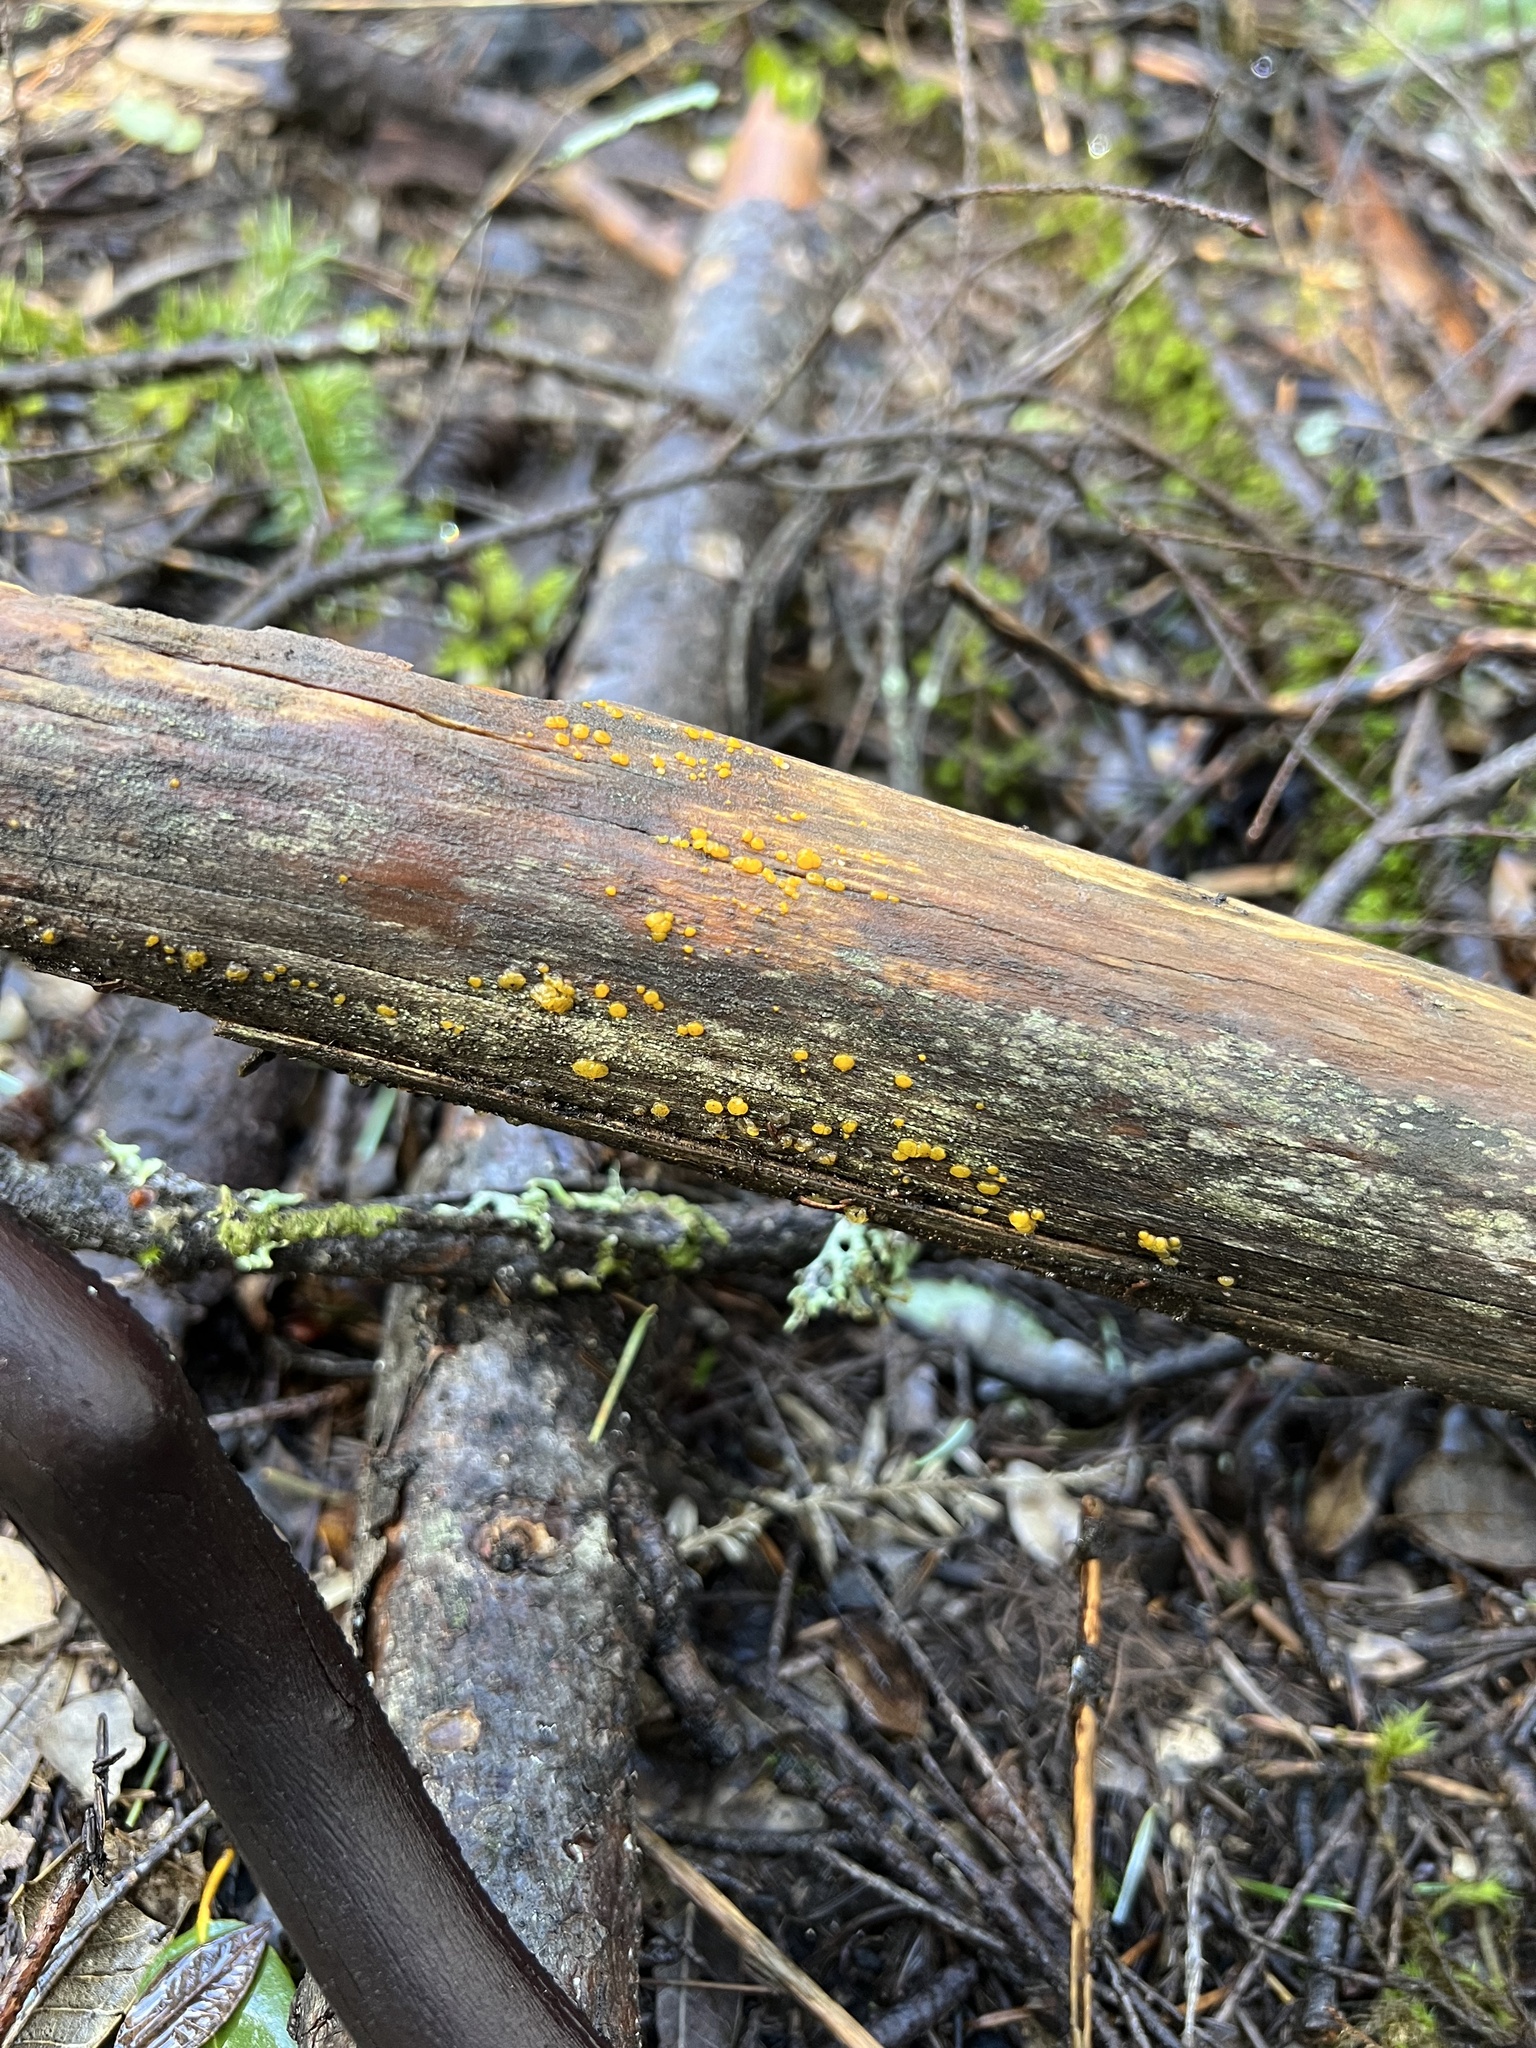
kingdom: Fungi
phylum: Basidiomycota
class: Dacrymycetes
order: Dacrymycetales
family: Dacrymycetaceae
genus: Dacrymyces
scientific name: Dacrymyces stillatus
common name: Common jelly spot
